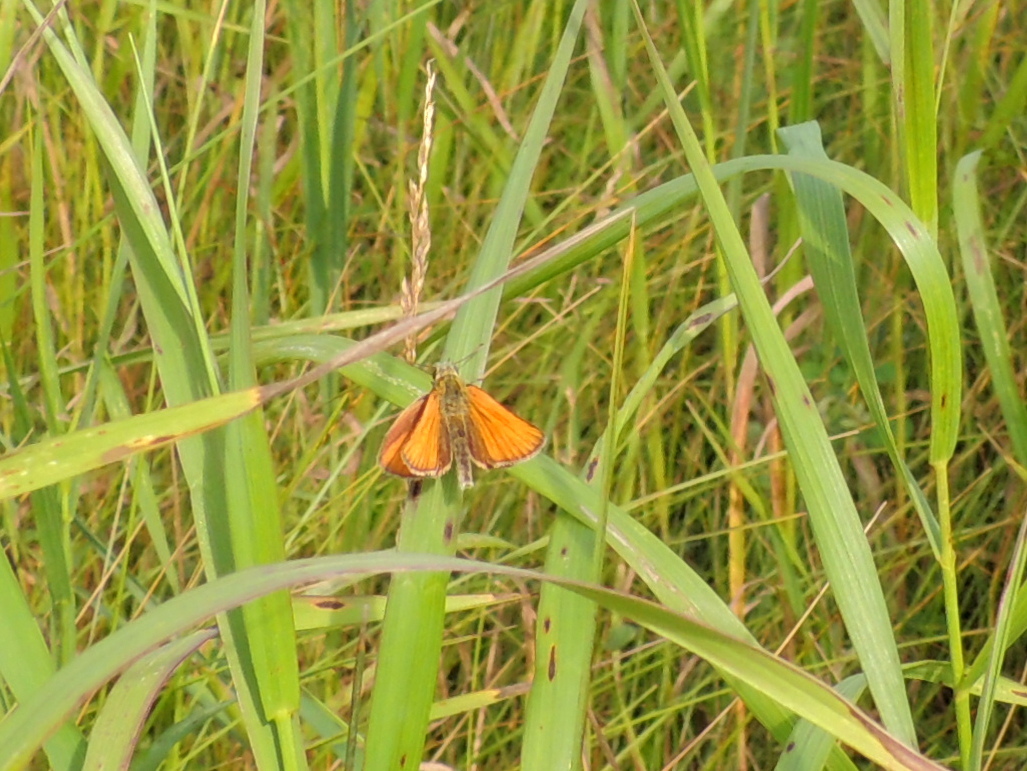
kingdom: Animalia
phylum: Arthropoda
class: Insecta
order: Lepidoptera
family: Hesperiidae
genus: Thymelicus
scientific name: Thymelicus lineola
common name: Essex skipper
